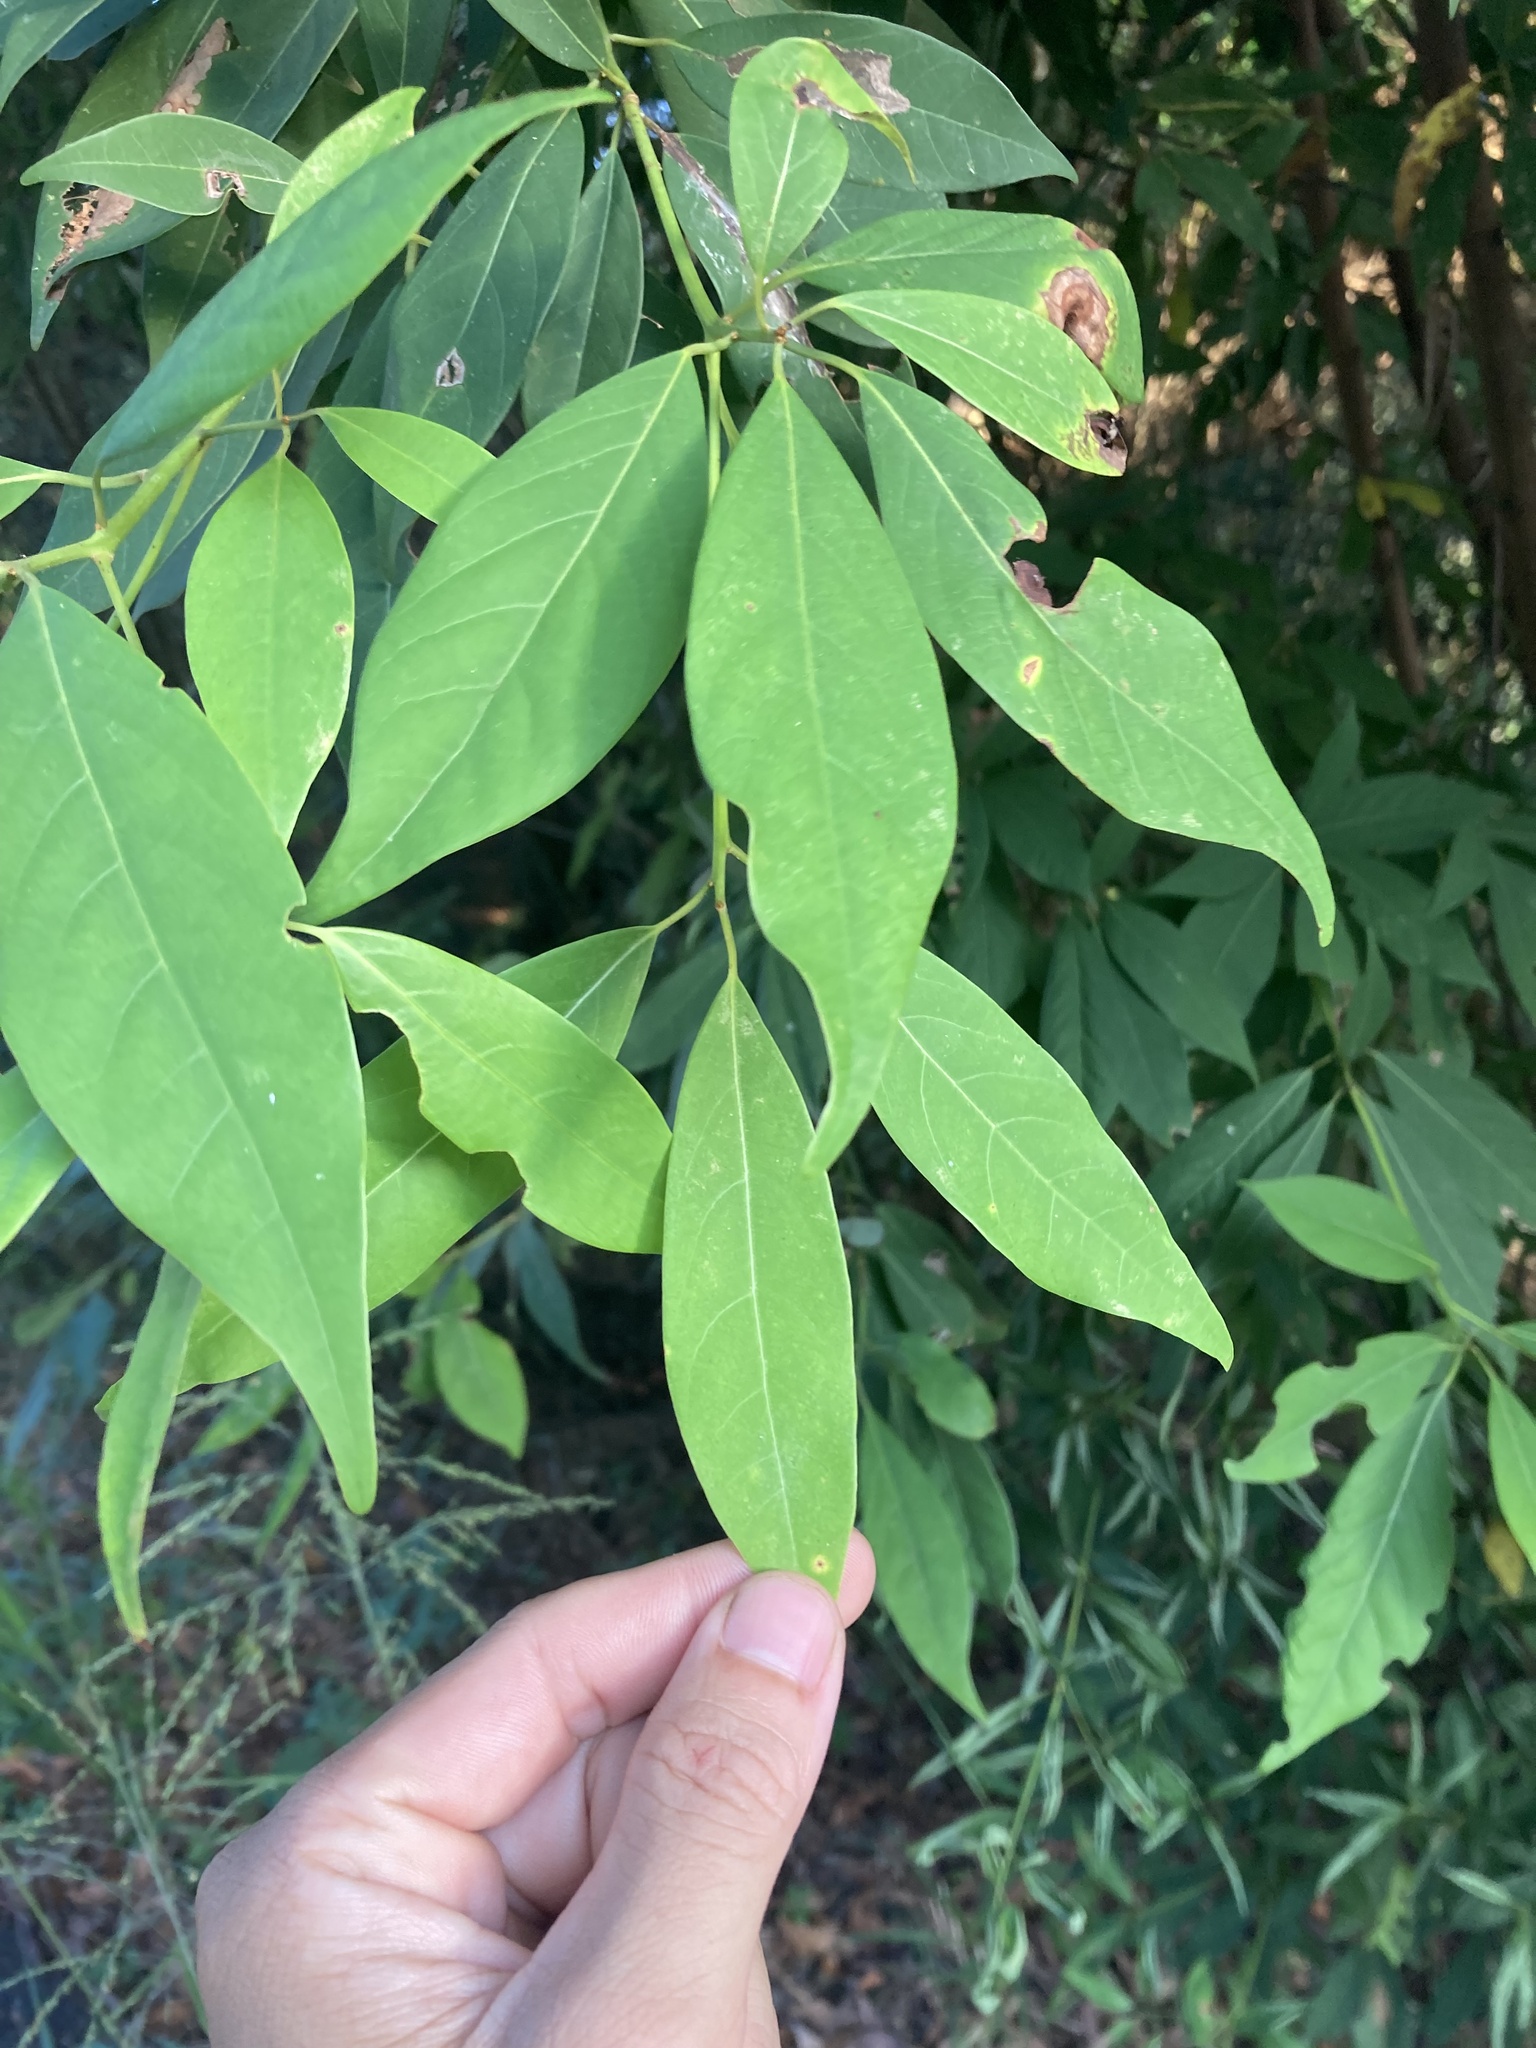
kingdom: Plantae
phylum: Tracheophyta
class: Magnoliopsida
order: Laurales
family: Lauraceae
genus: Machilus
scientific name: Machilus zuihoensis
